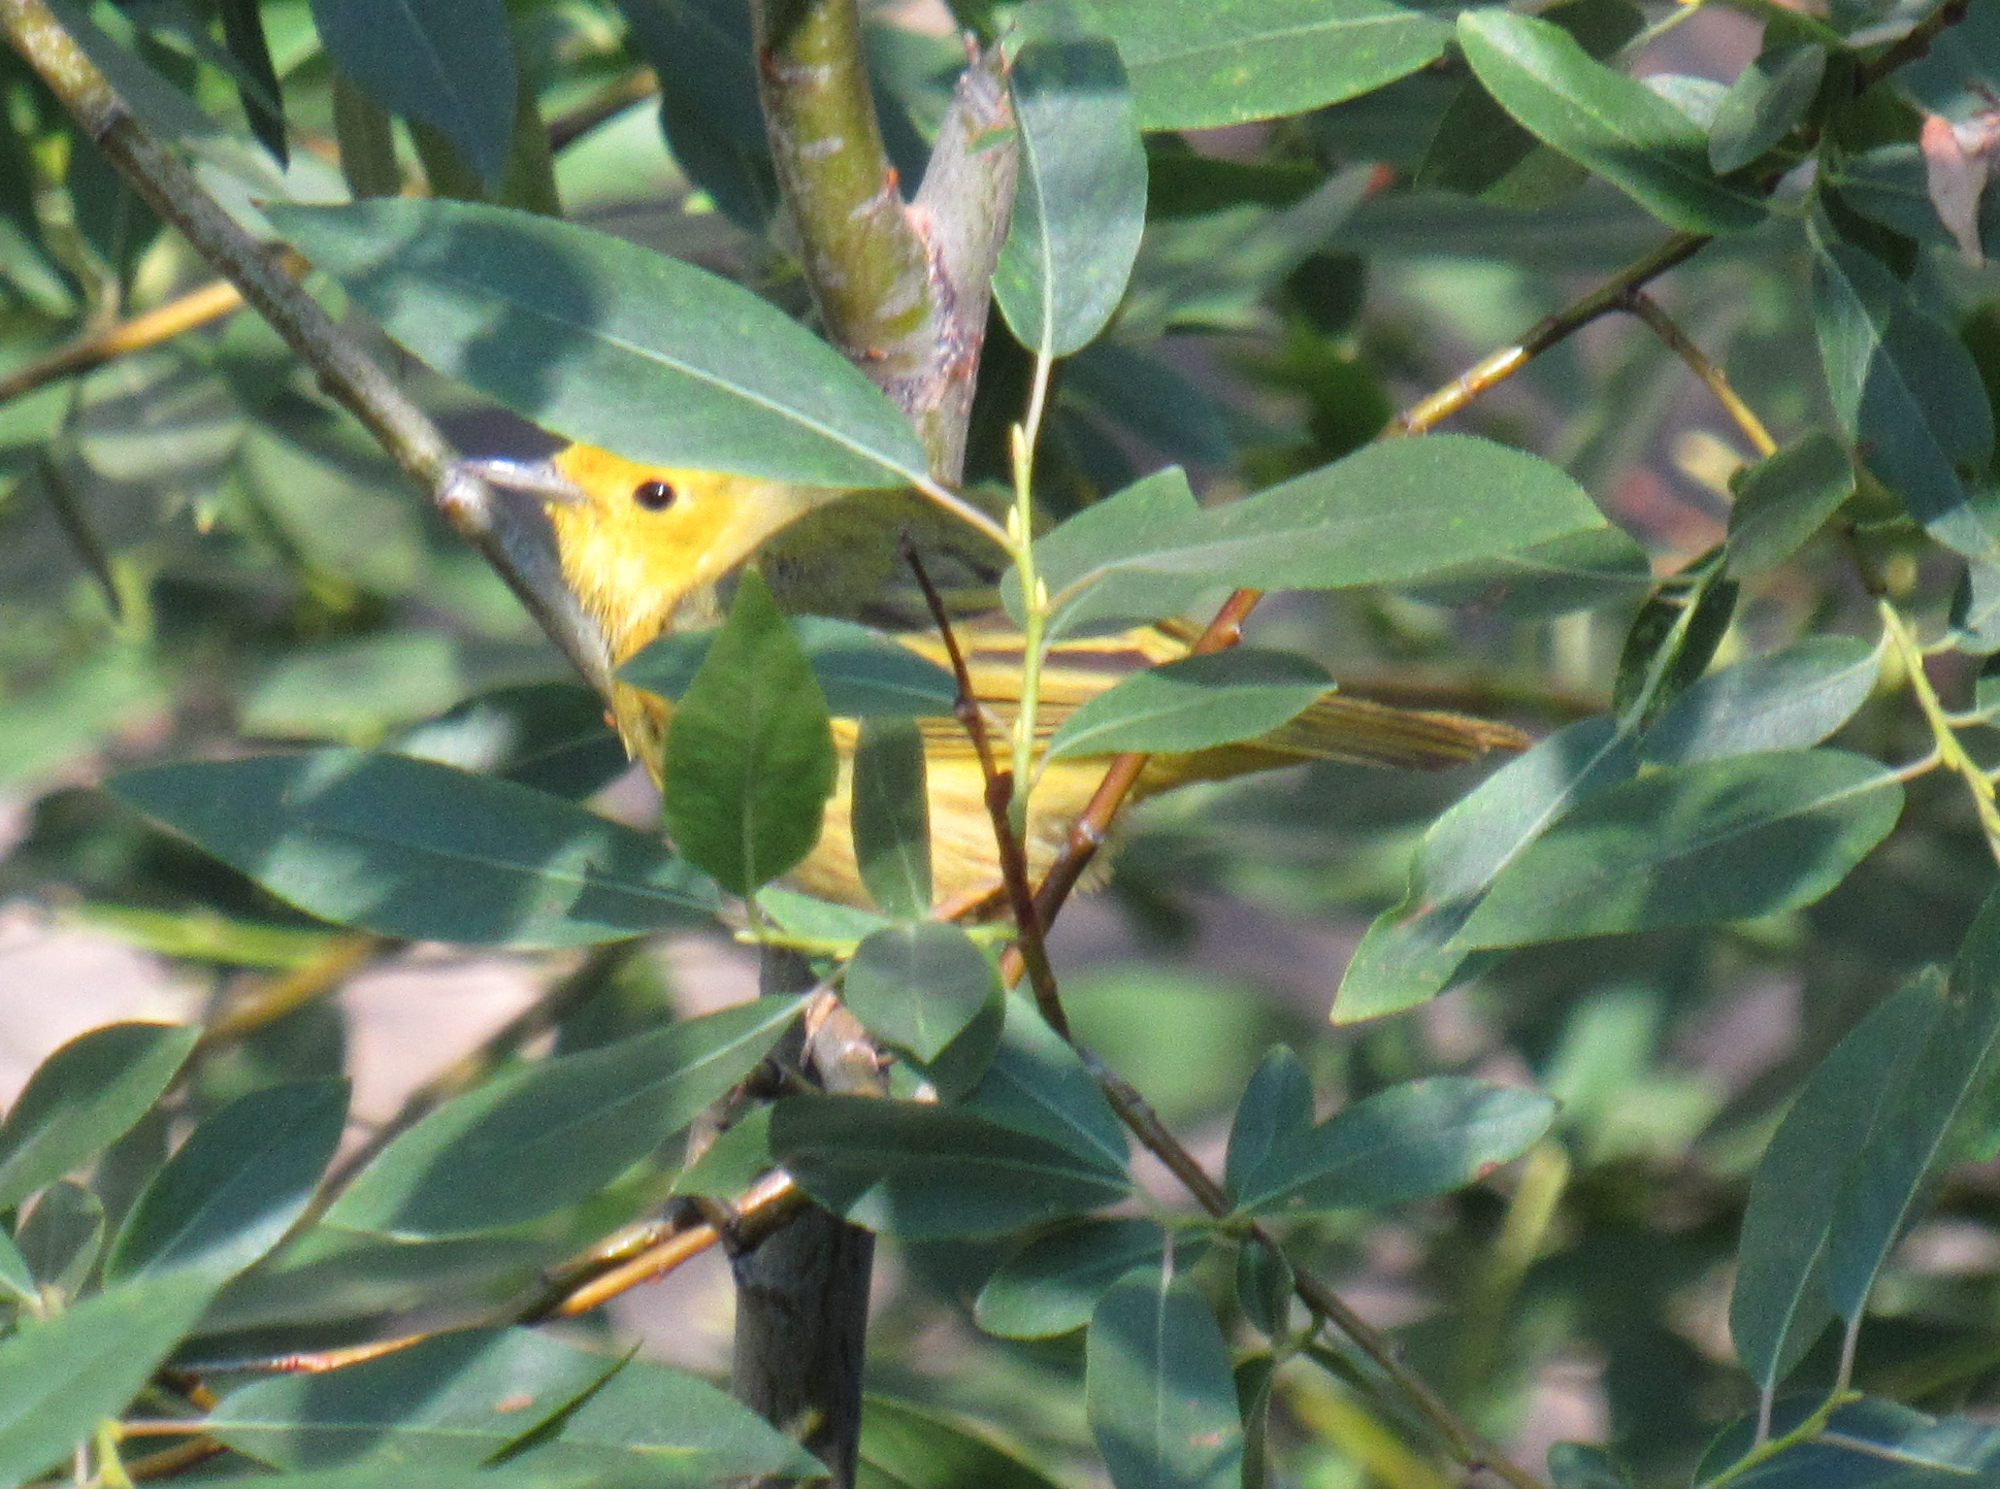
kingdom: Animalia
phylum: Chordata
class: Aves
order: Passeriformes
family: Parulidae
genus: Setophaga
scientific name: Setophaga petechia
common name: Yellow warbler
